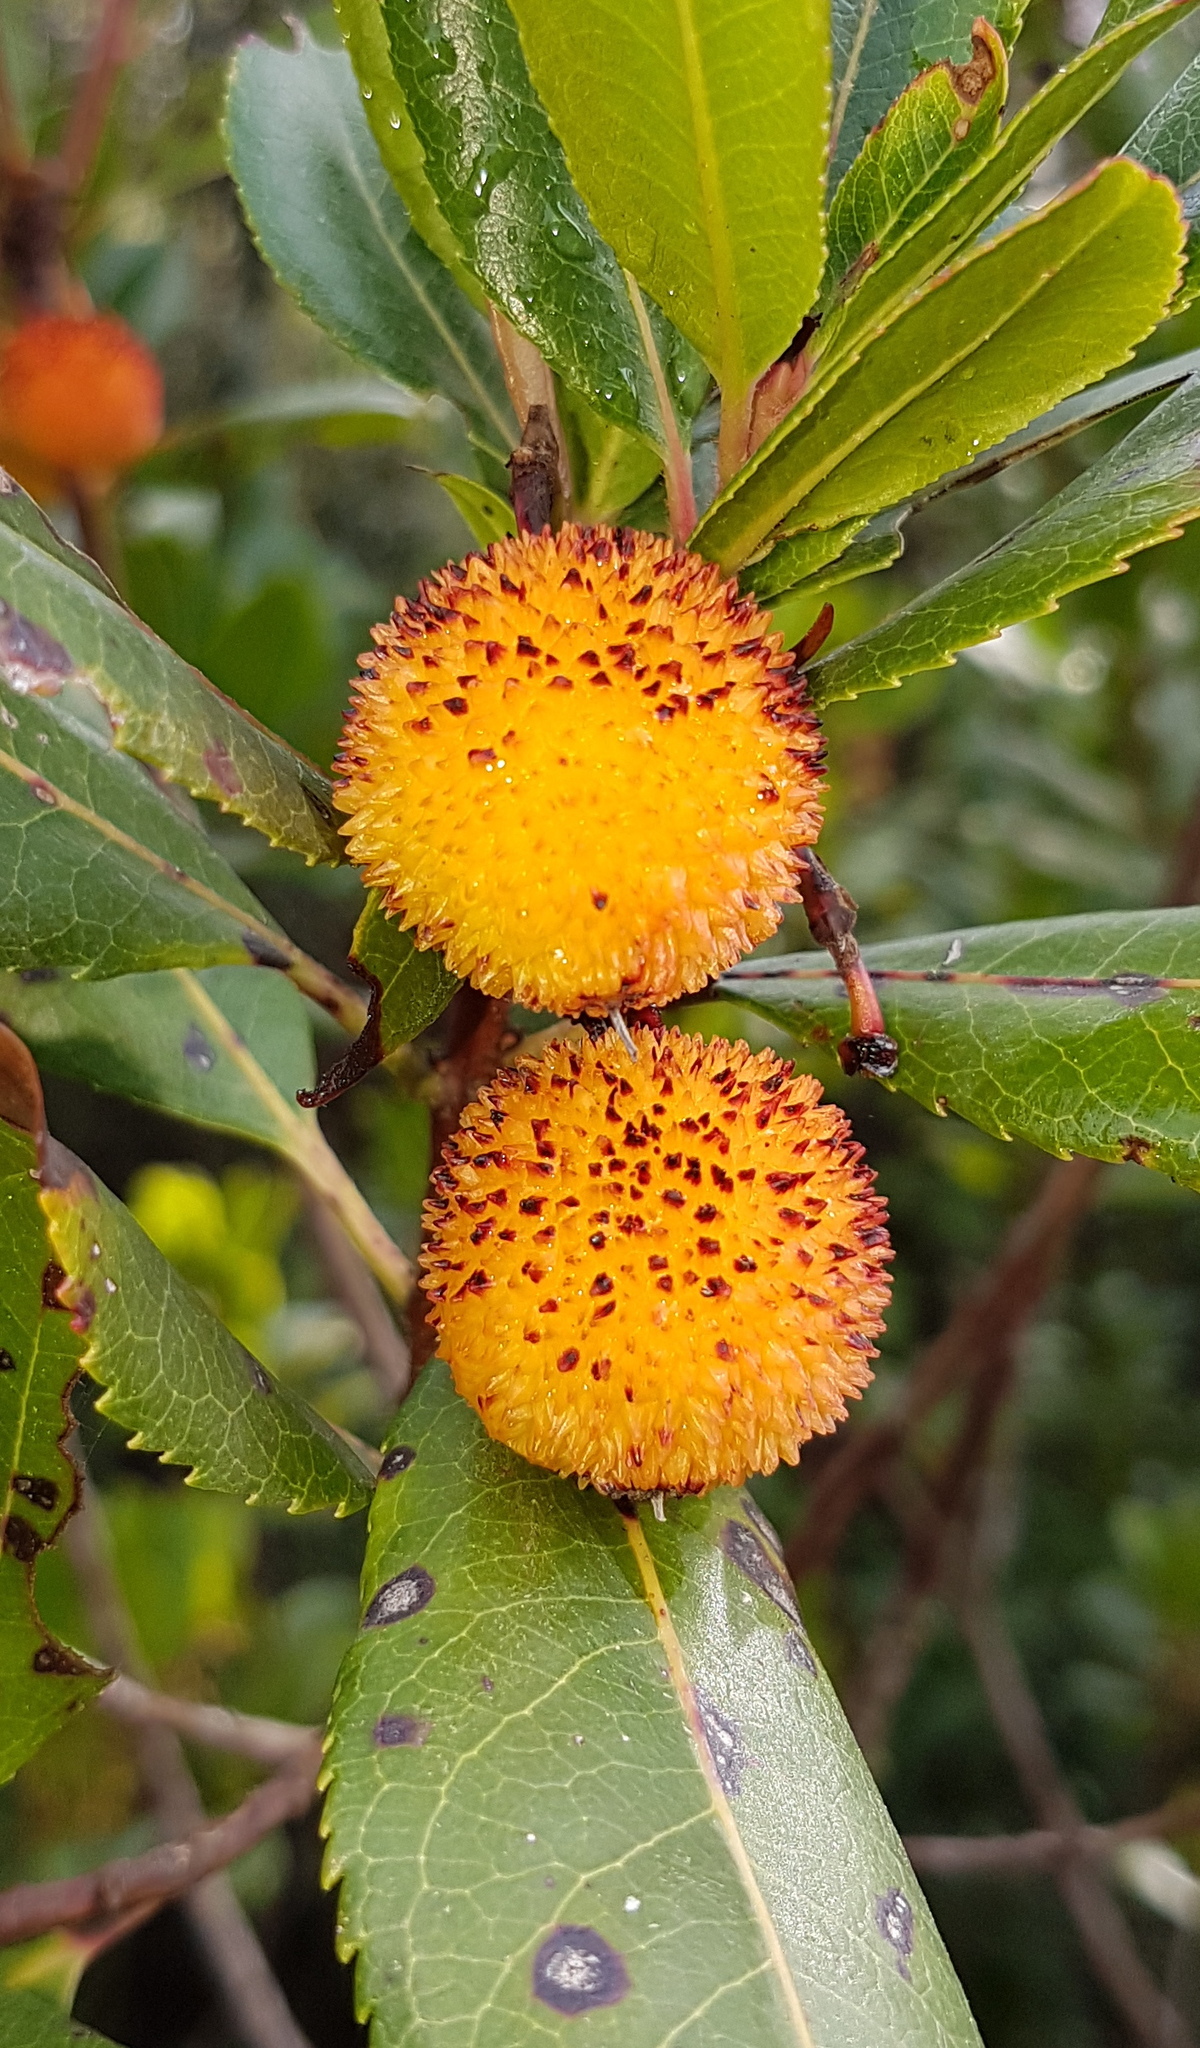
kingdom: Plantae
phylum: Tracheophyta
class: Magnoliopsida
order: Ericales
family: Ericaceae
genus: Arbutus
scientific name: Arbutus unedo
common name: Strawberry-tree
